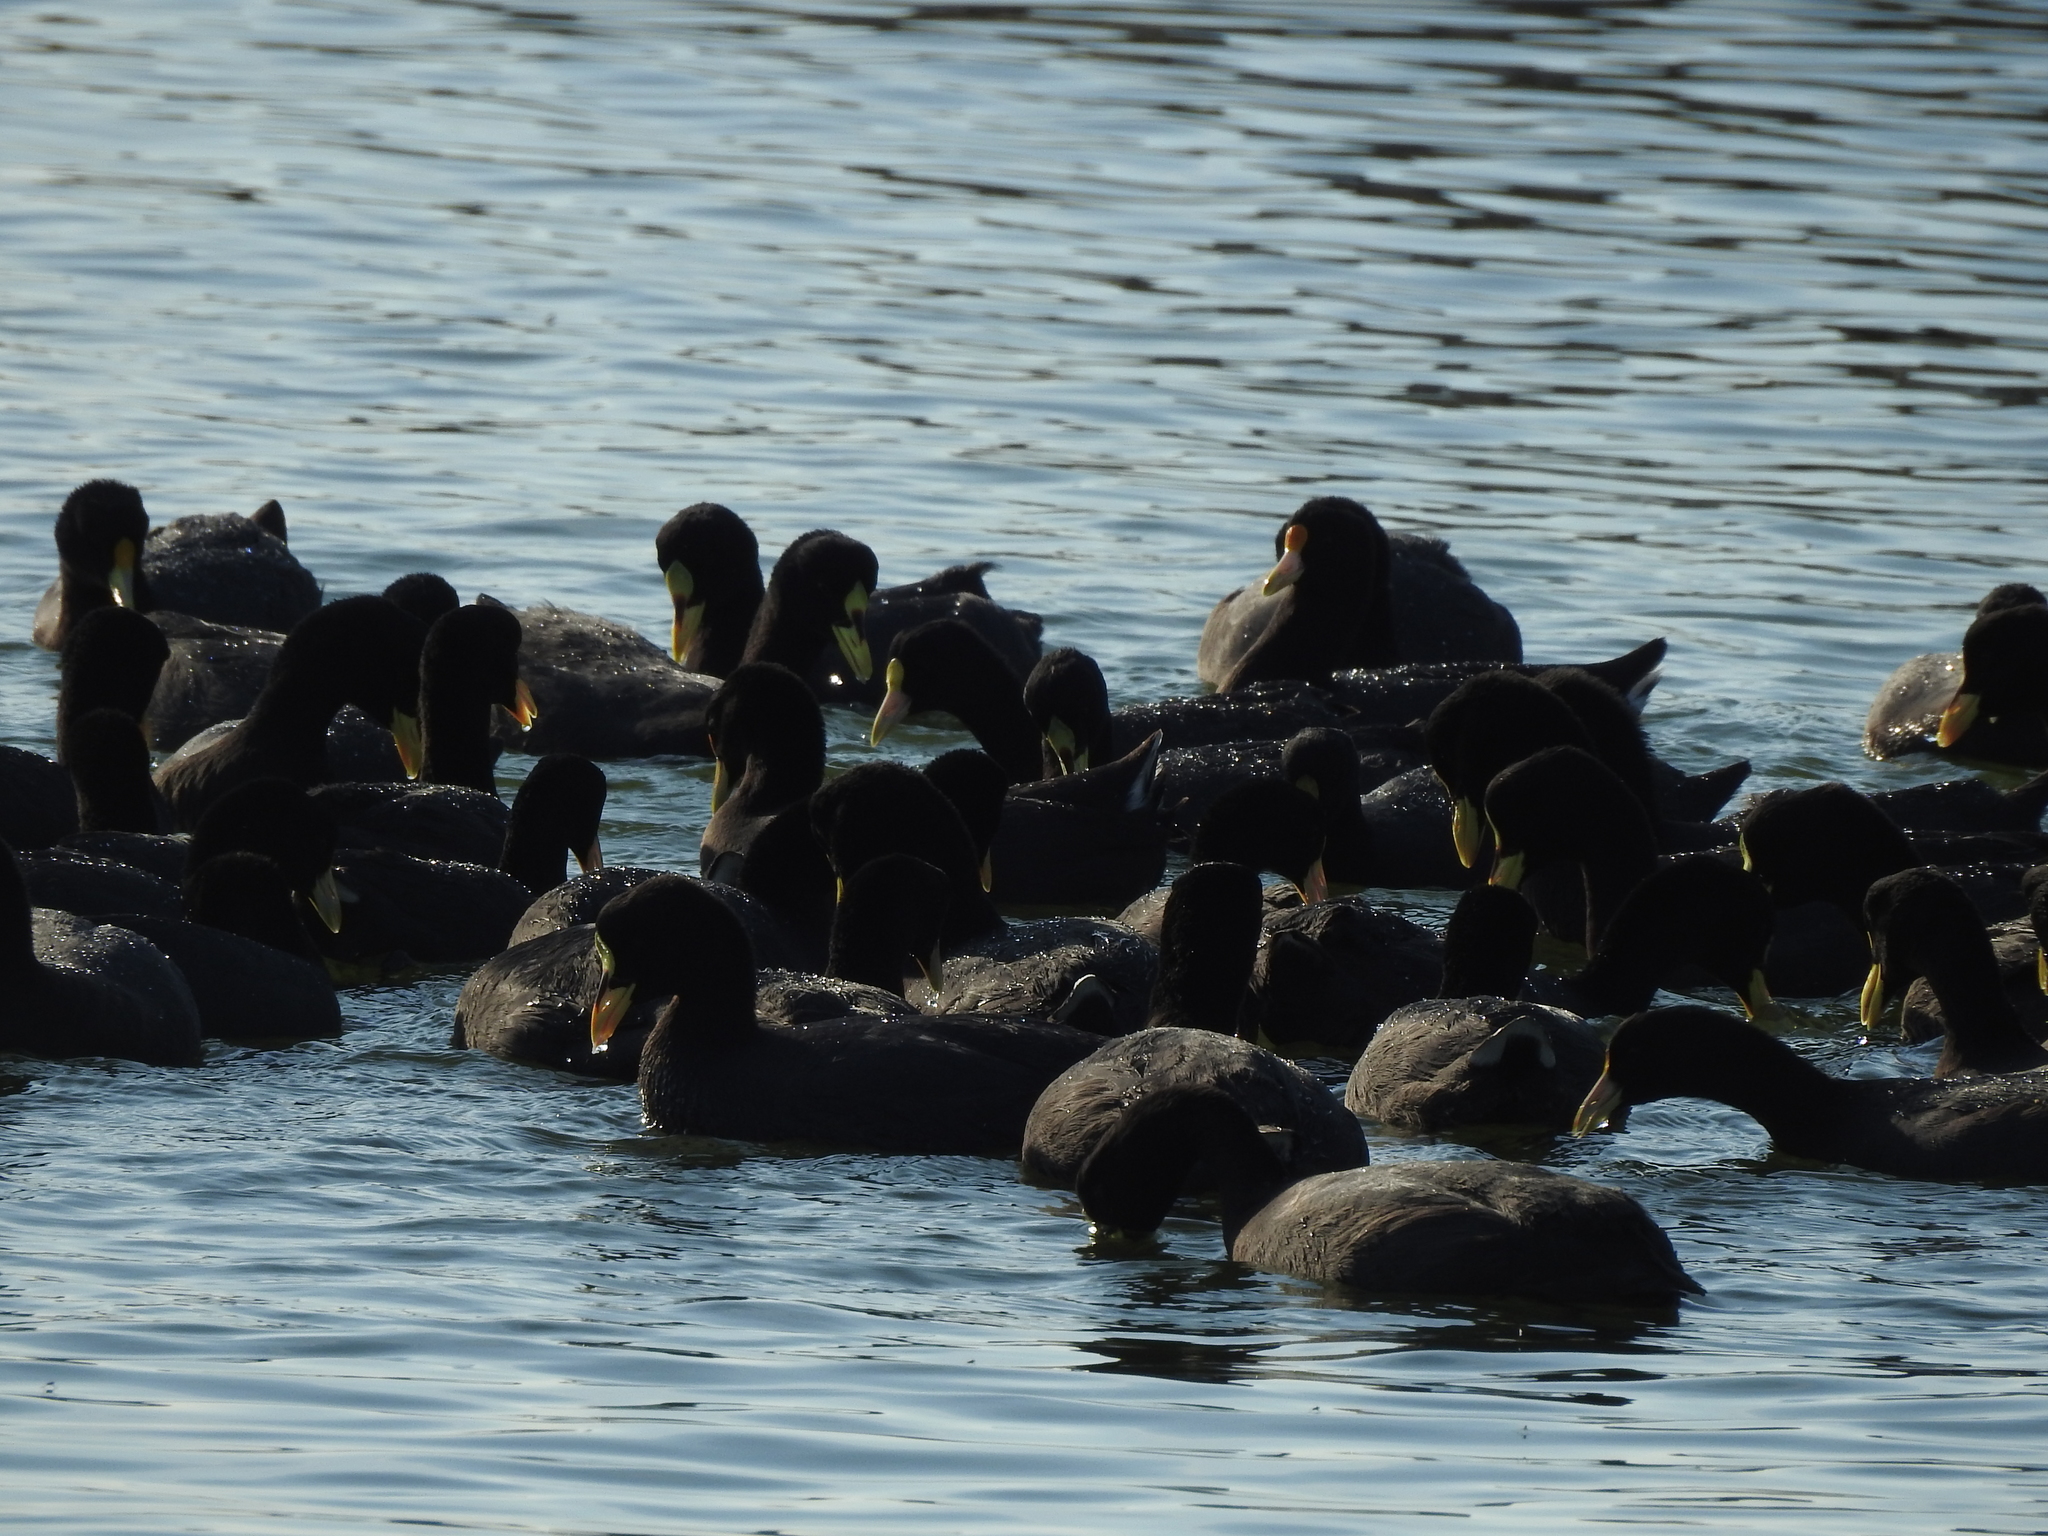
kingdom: Animalia
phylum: Chordata
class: Aves
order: Gruiformes
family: Rallidae
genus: Fulica
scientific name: Fulica armillata
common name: Red-gartered coot
